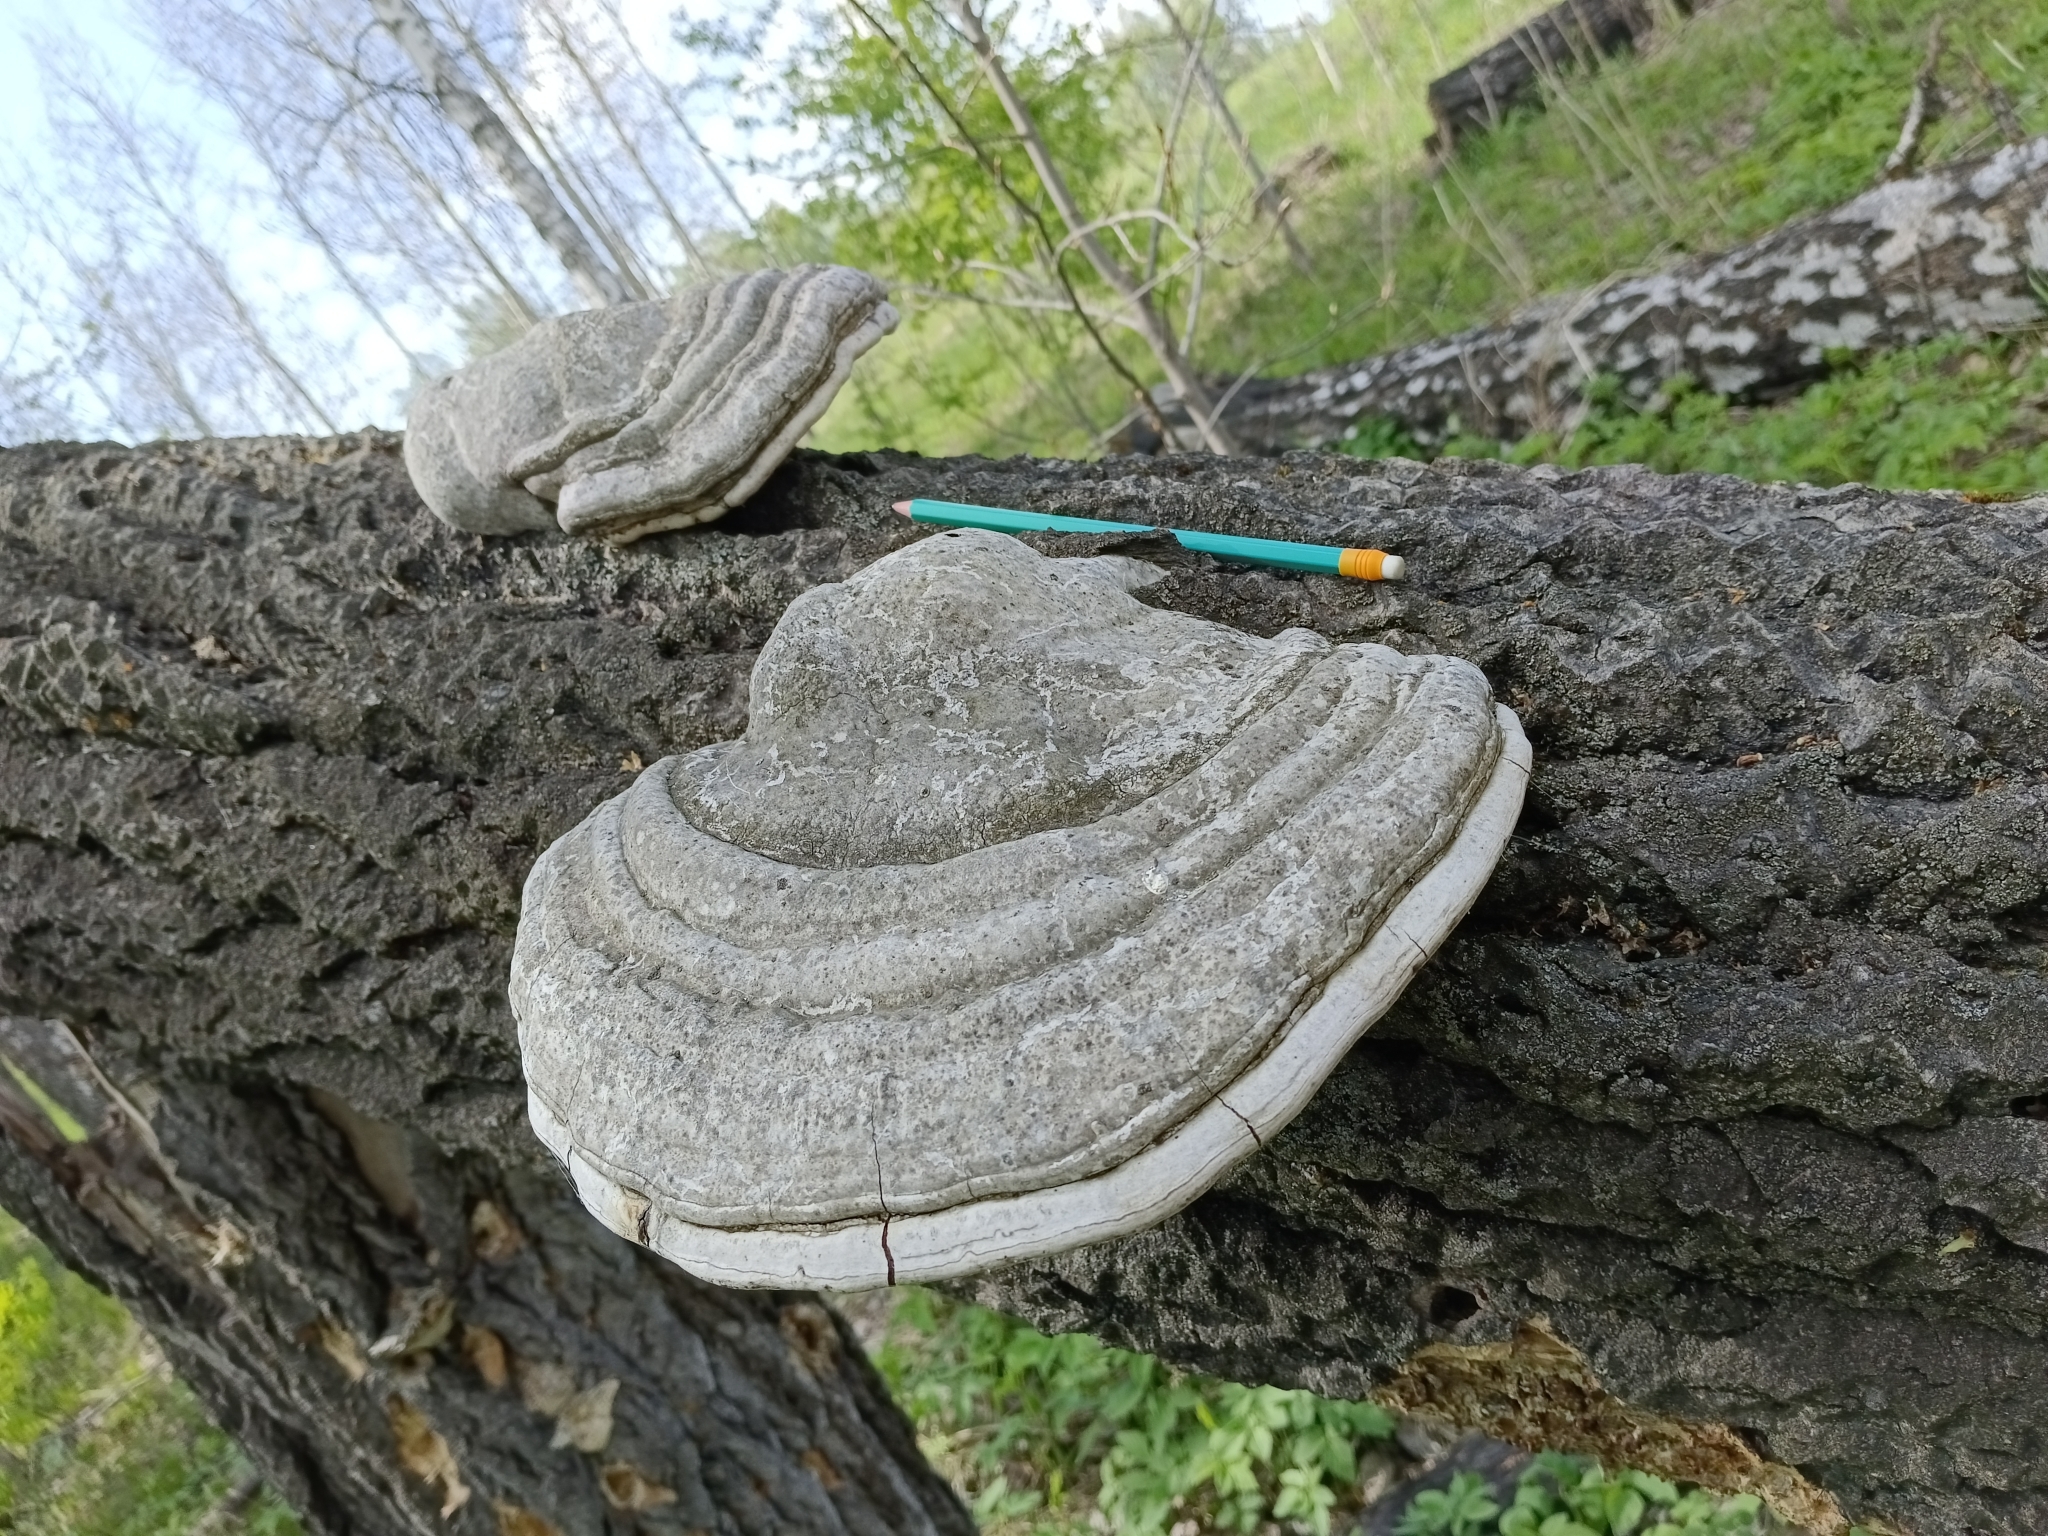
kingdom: Fungi
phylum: Basidiomycota
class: Agaricomycetes
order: Polyporales
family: Polyporaceae
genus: Fomes
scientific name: Fomes fomentarius
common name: Hoof fungus
